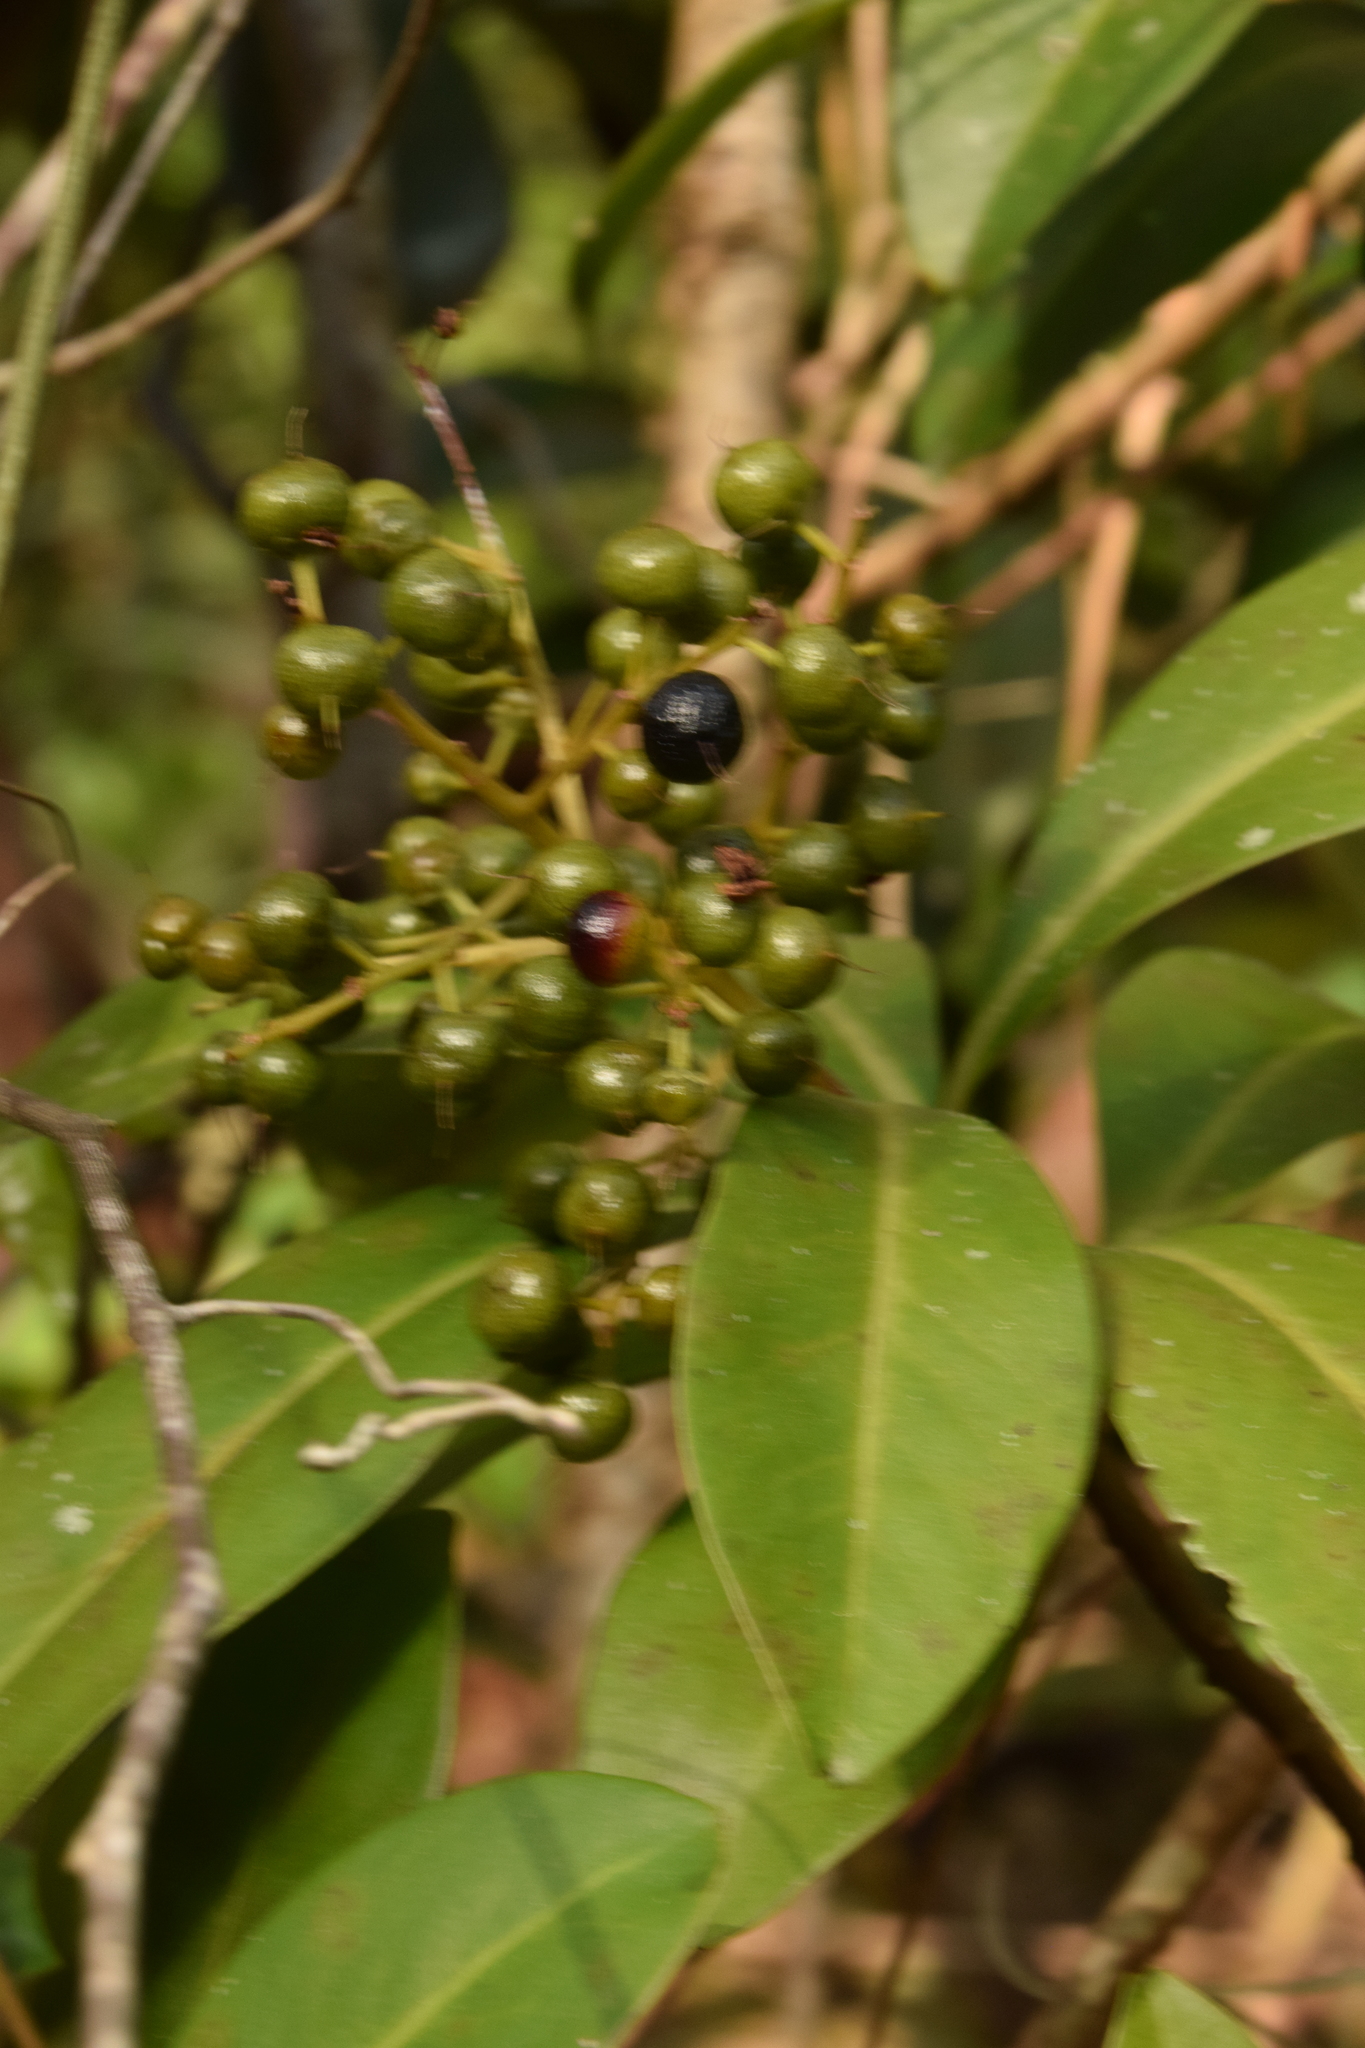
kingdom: Plantae
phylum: Tracheophyta
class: Magnoliopsida
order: Ericales
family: Primulaceae
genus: Ardisia
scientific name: Ardisia escallonioides
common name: Island marlberry
